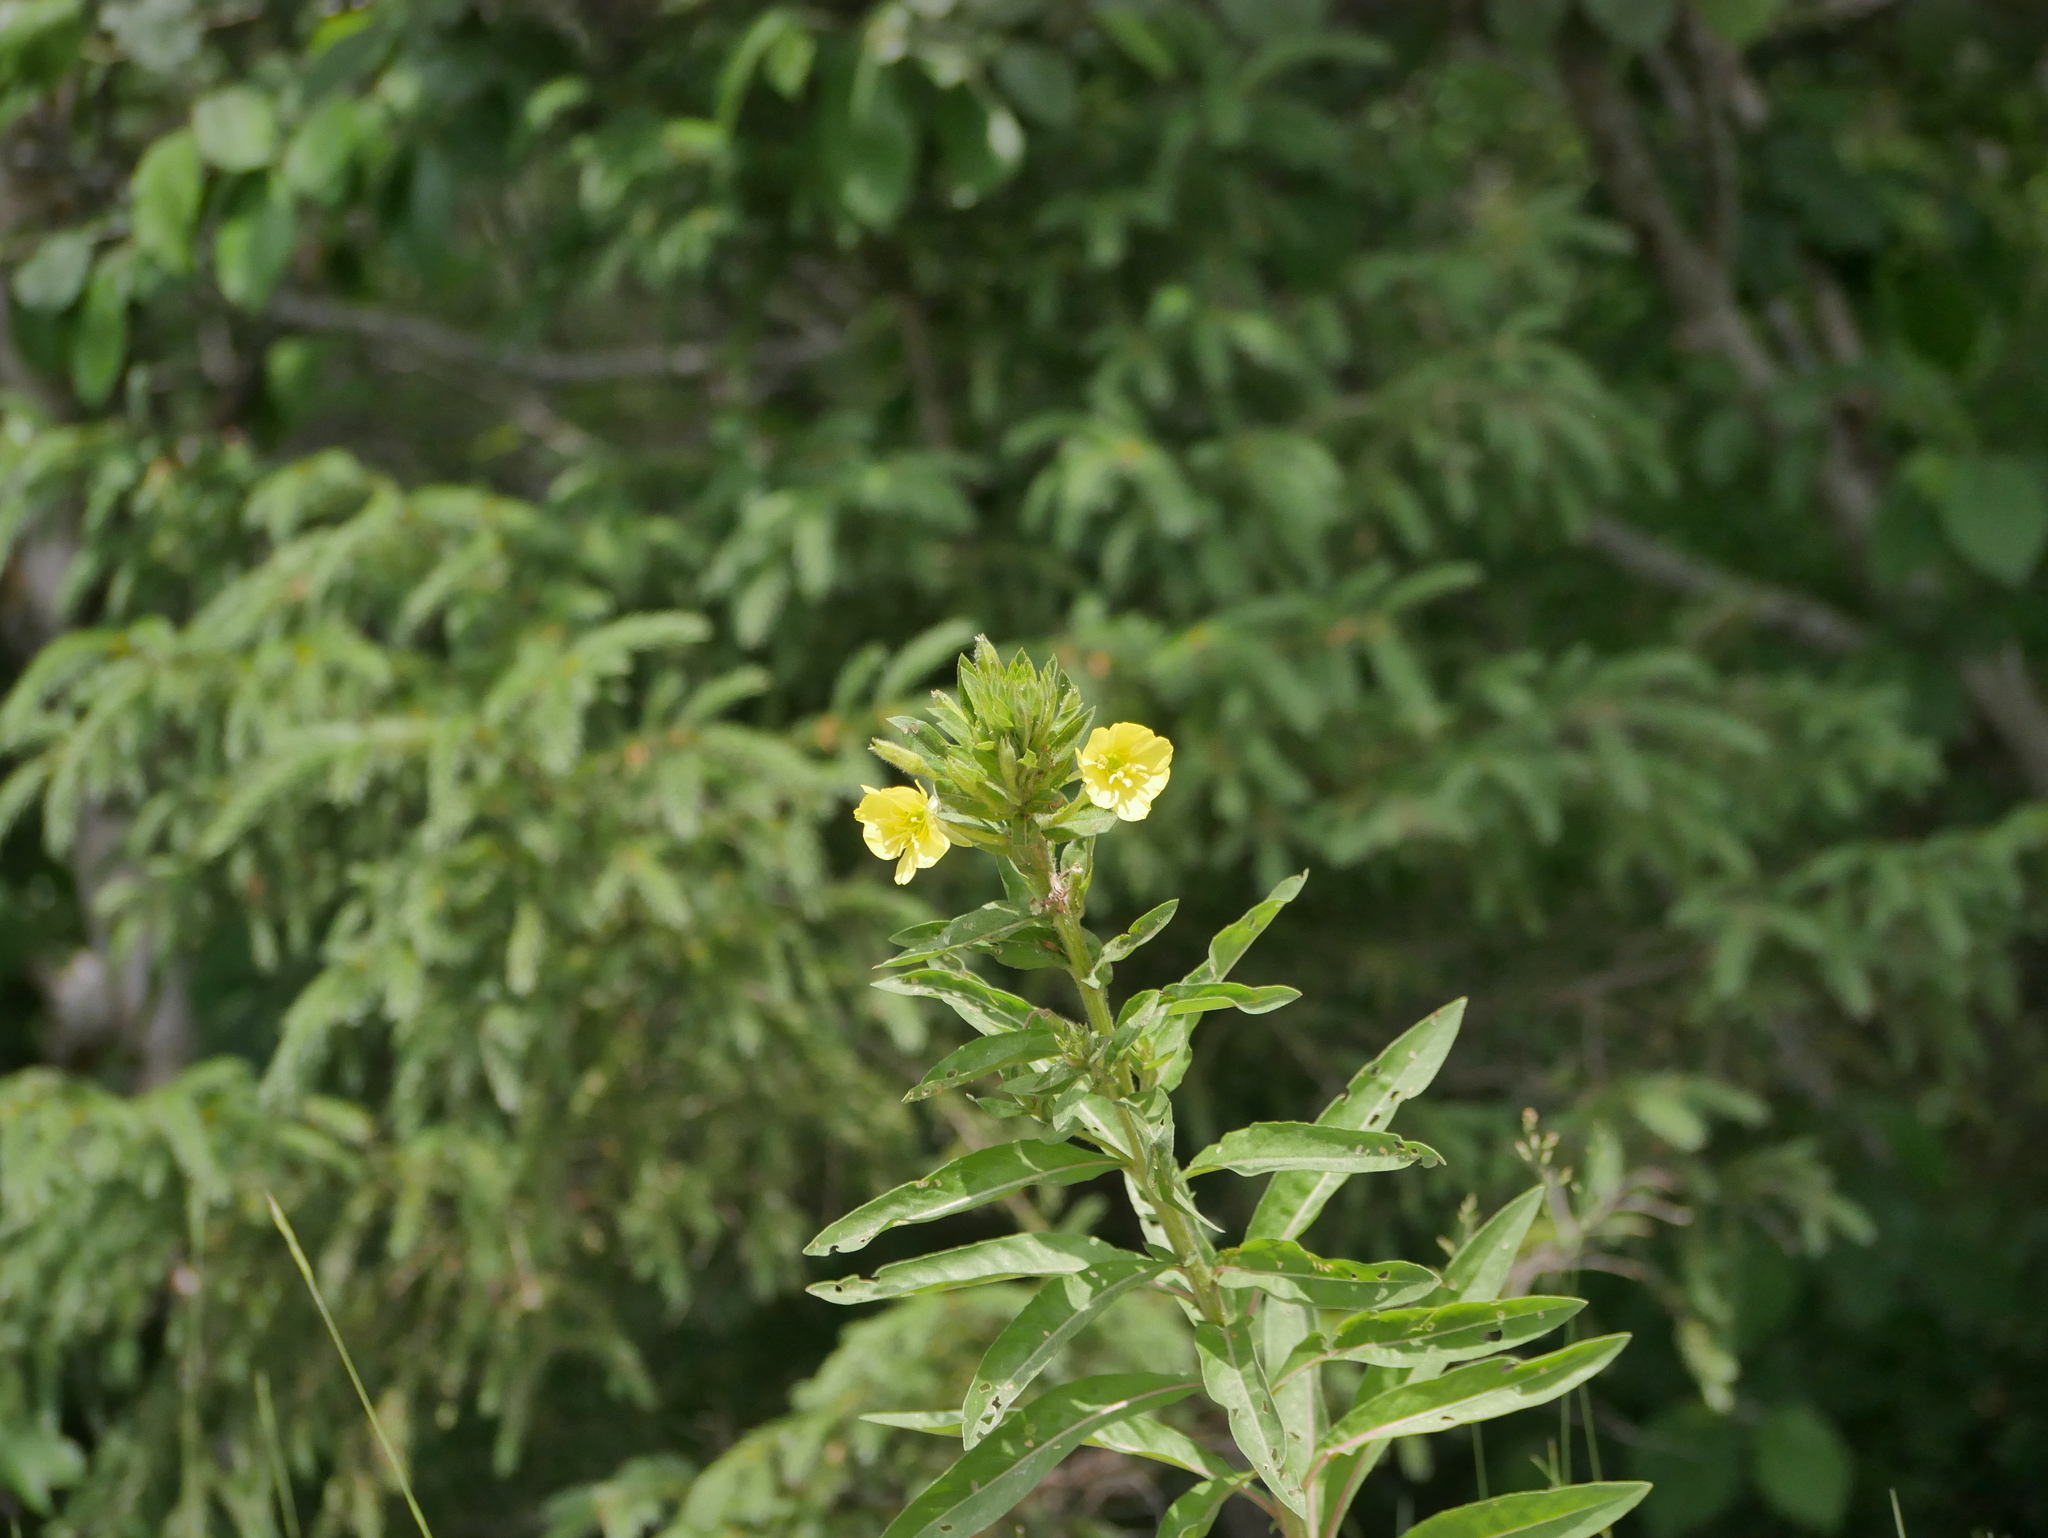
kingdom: Plantae
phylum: Tracheophyta
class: Magnoliopsida
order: Myrtales
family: Onagraceae
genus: Oenothera
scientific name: Oenothera biennis
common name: Common evening-primrose
